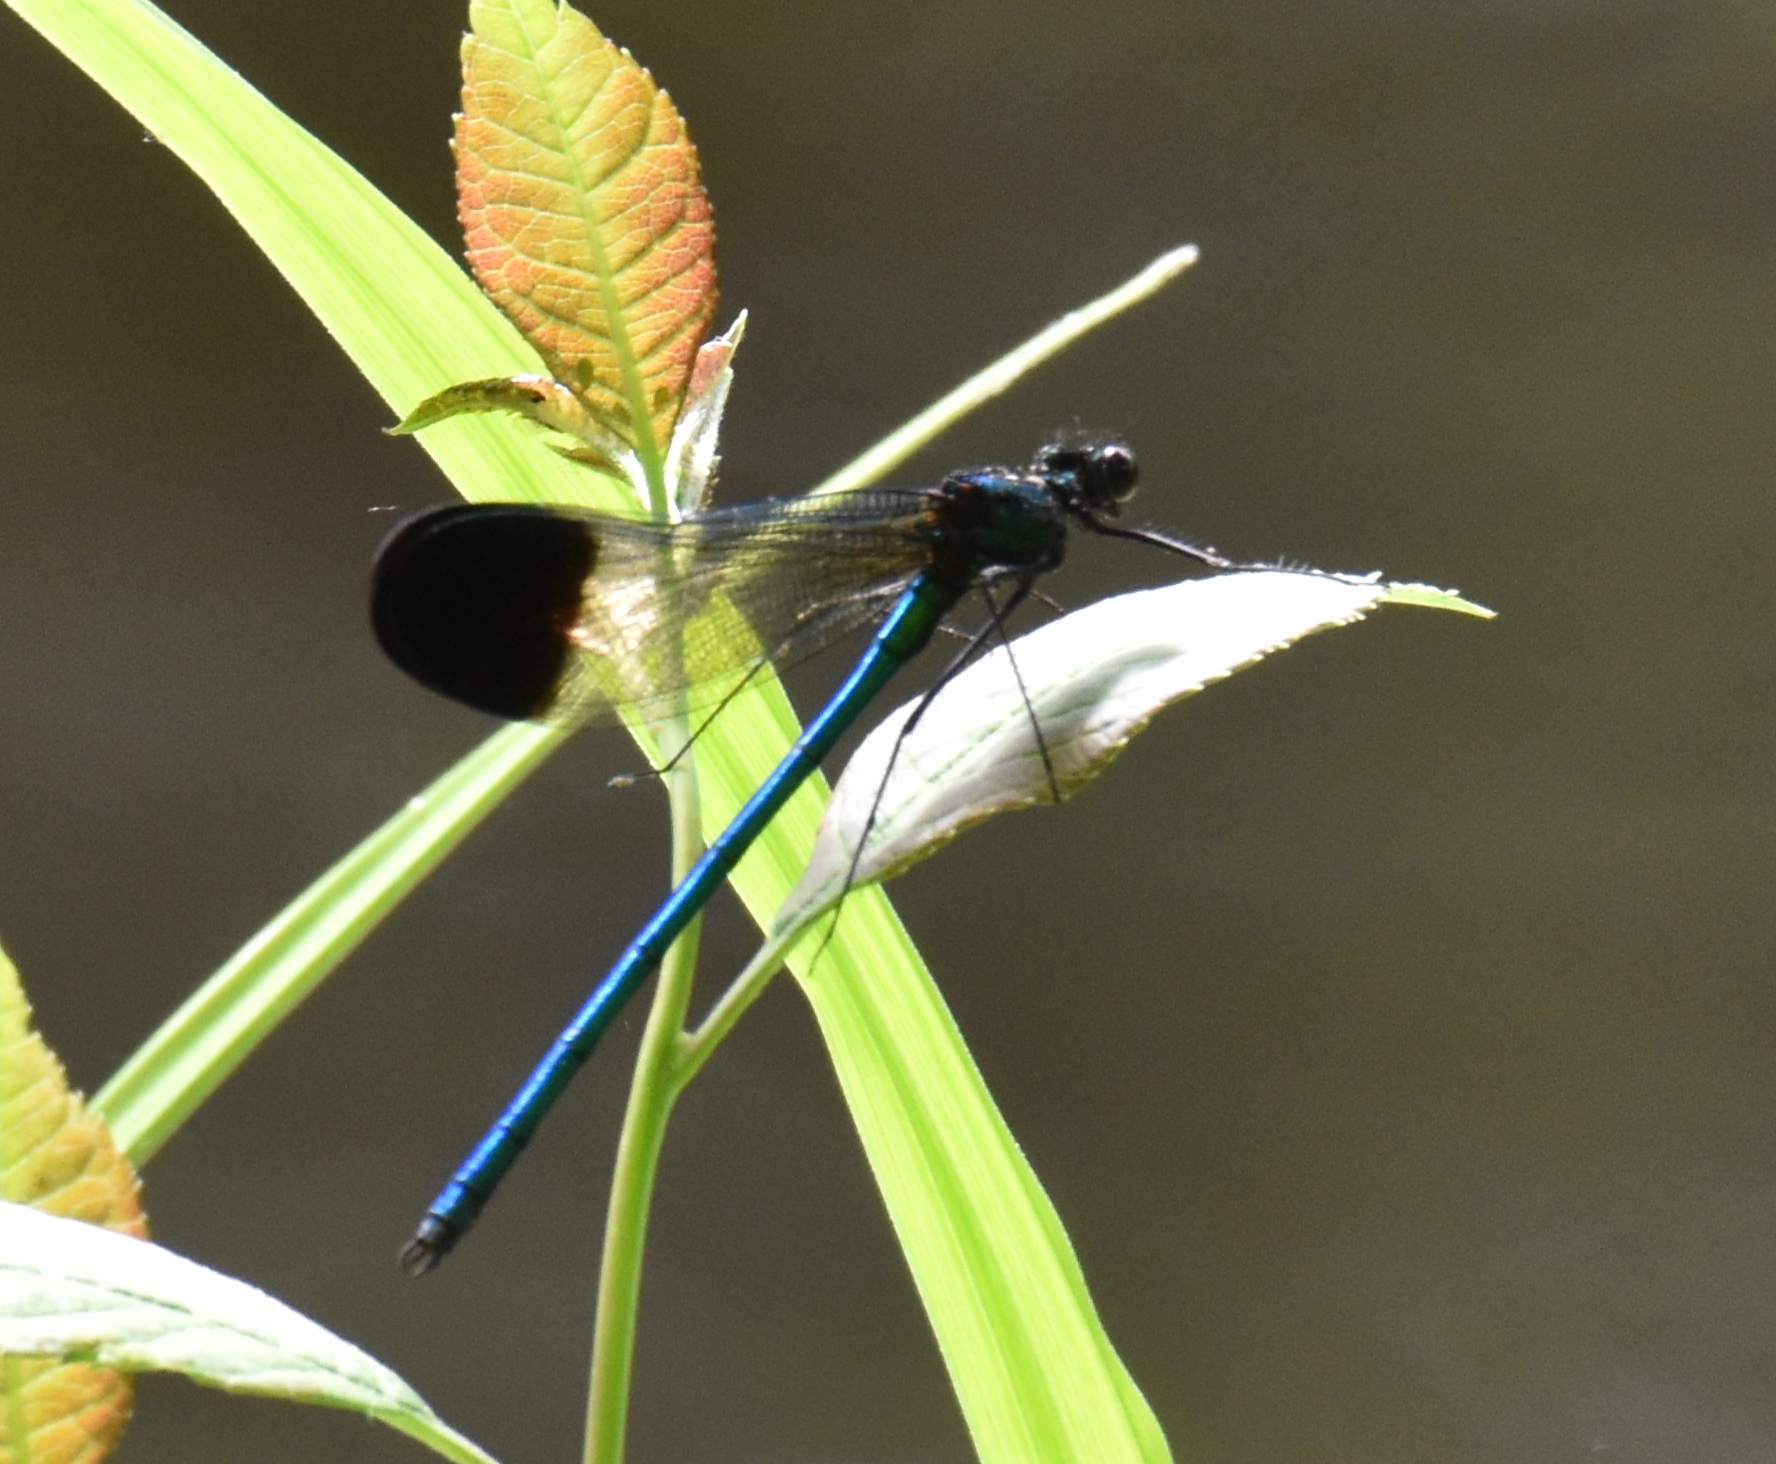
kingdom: Animalia
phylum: Arthropoda
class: Insecta
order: Odonata
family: Calopterygidae
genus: Calopteryx
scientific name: Calopteryx aequabilis
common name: River jewelwing
